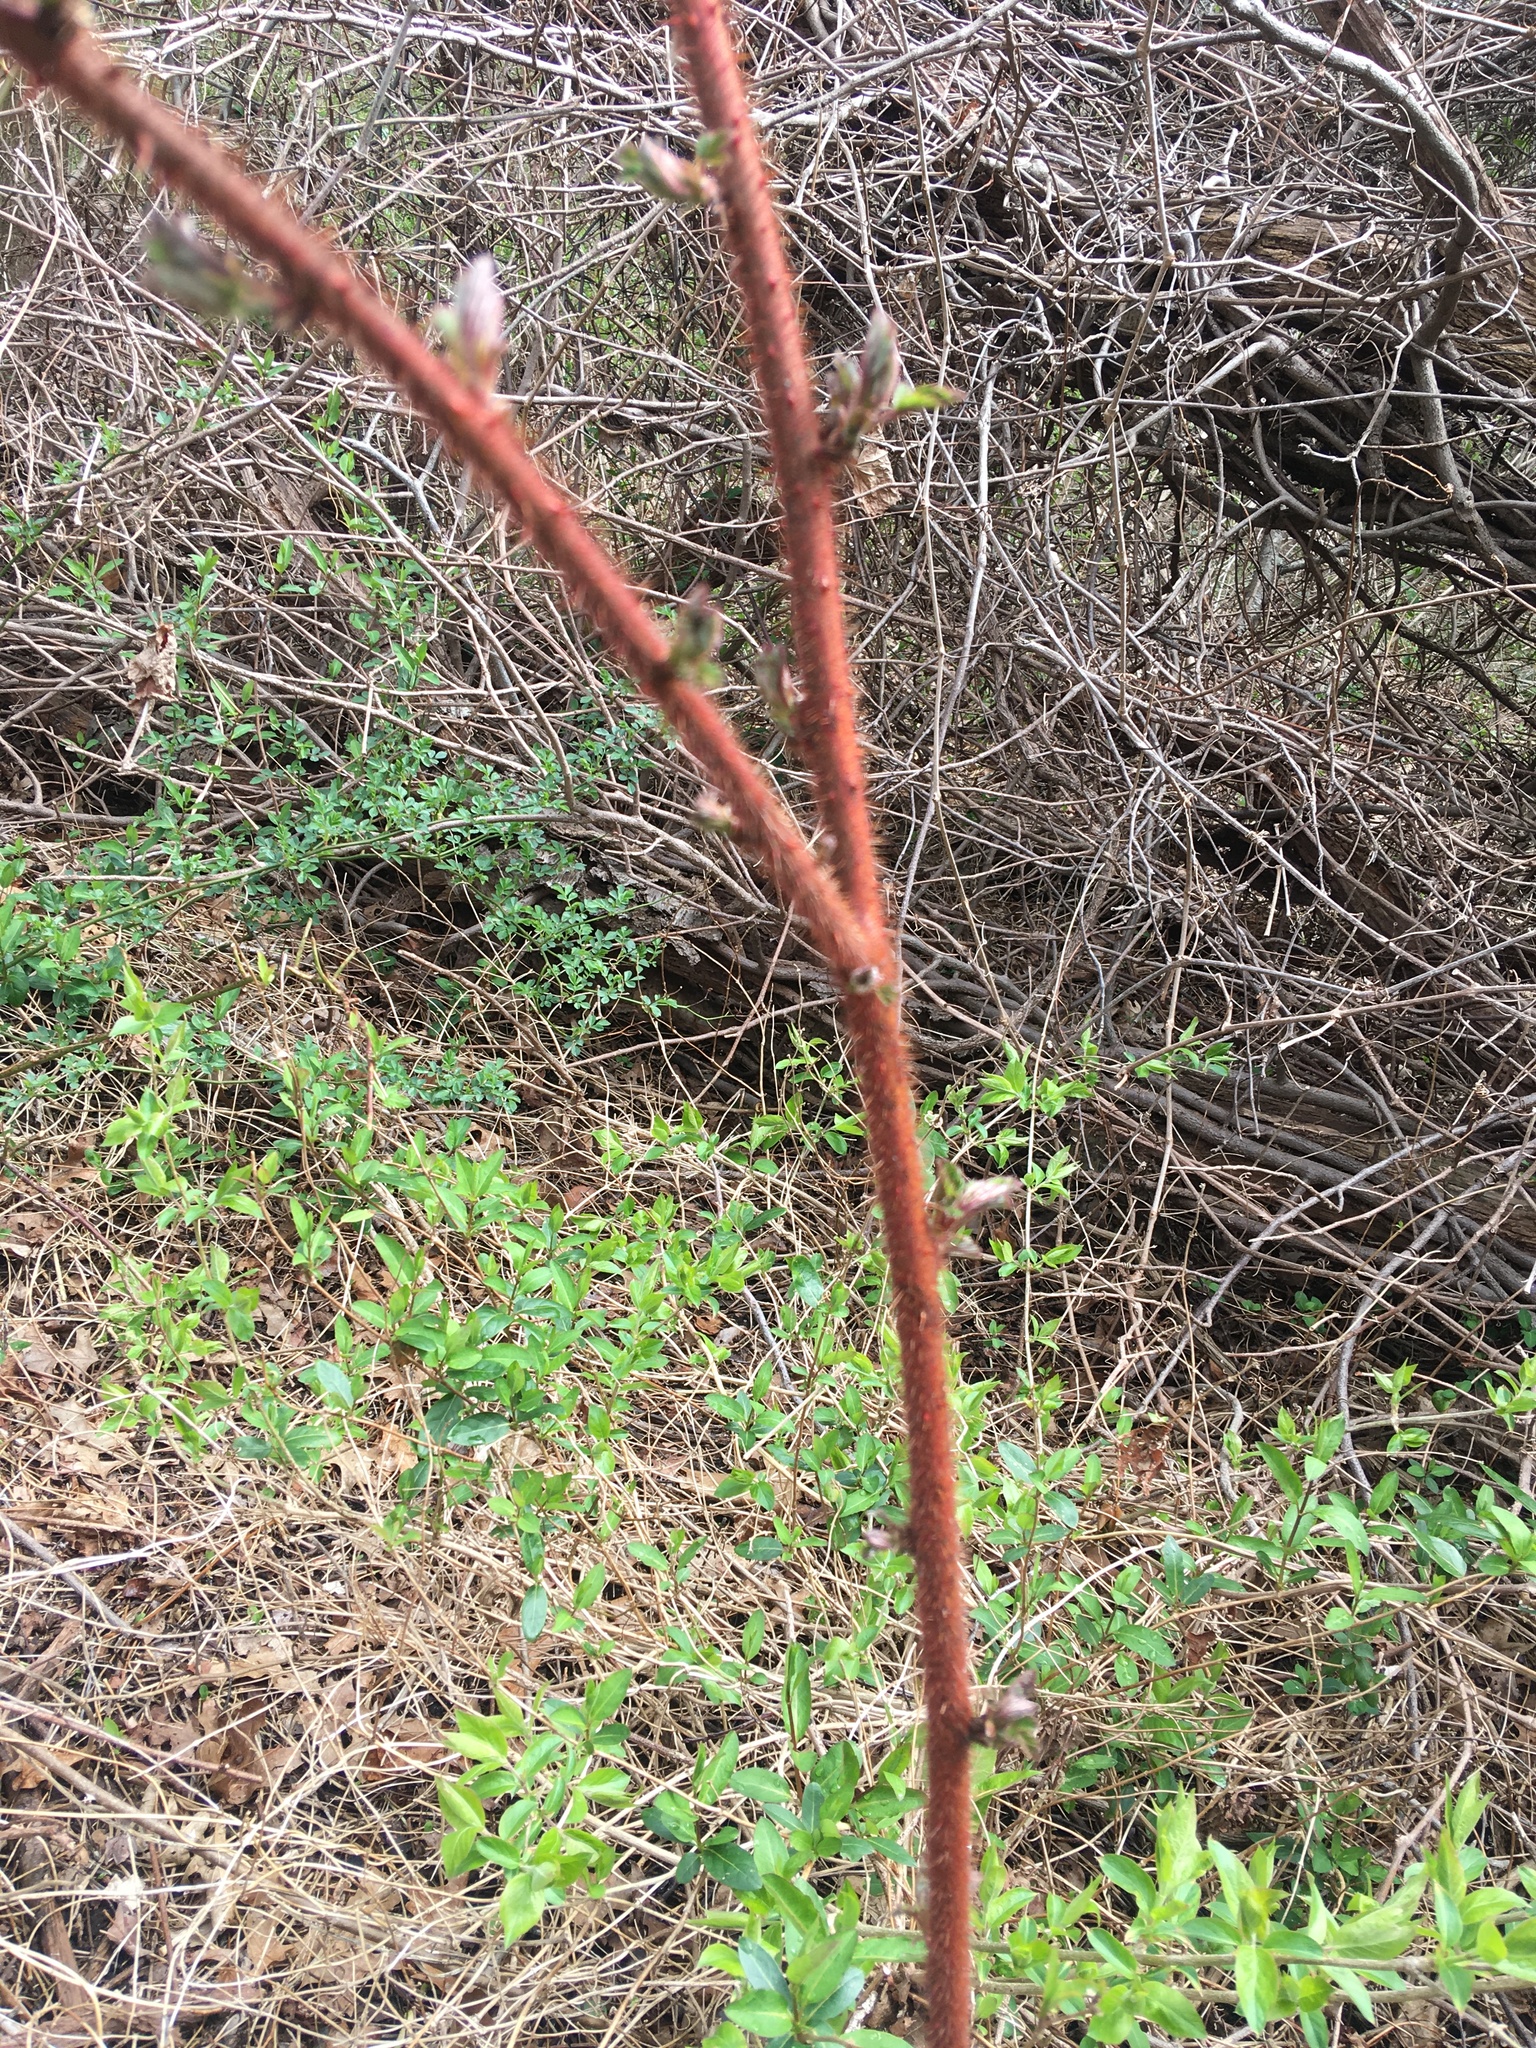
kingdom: Plantae
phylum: Tracheophyta
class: Magnoliopsida
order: Rosales
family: Rosaceae
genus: Rubus
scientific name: Rubus phoenicolasius
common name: Japanese wineberry
